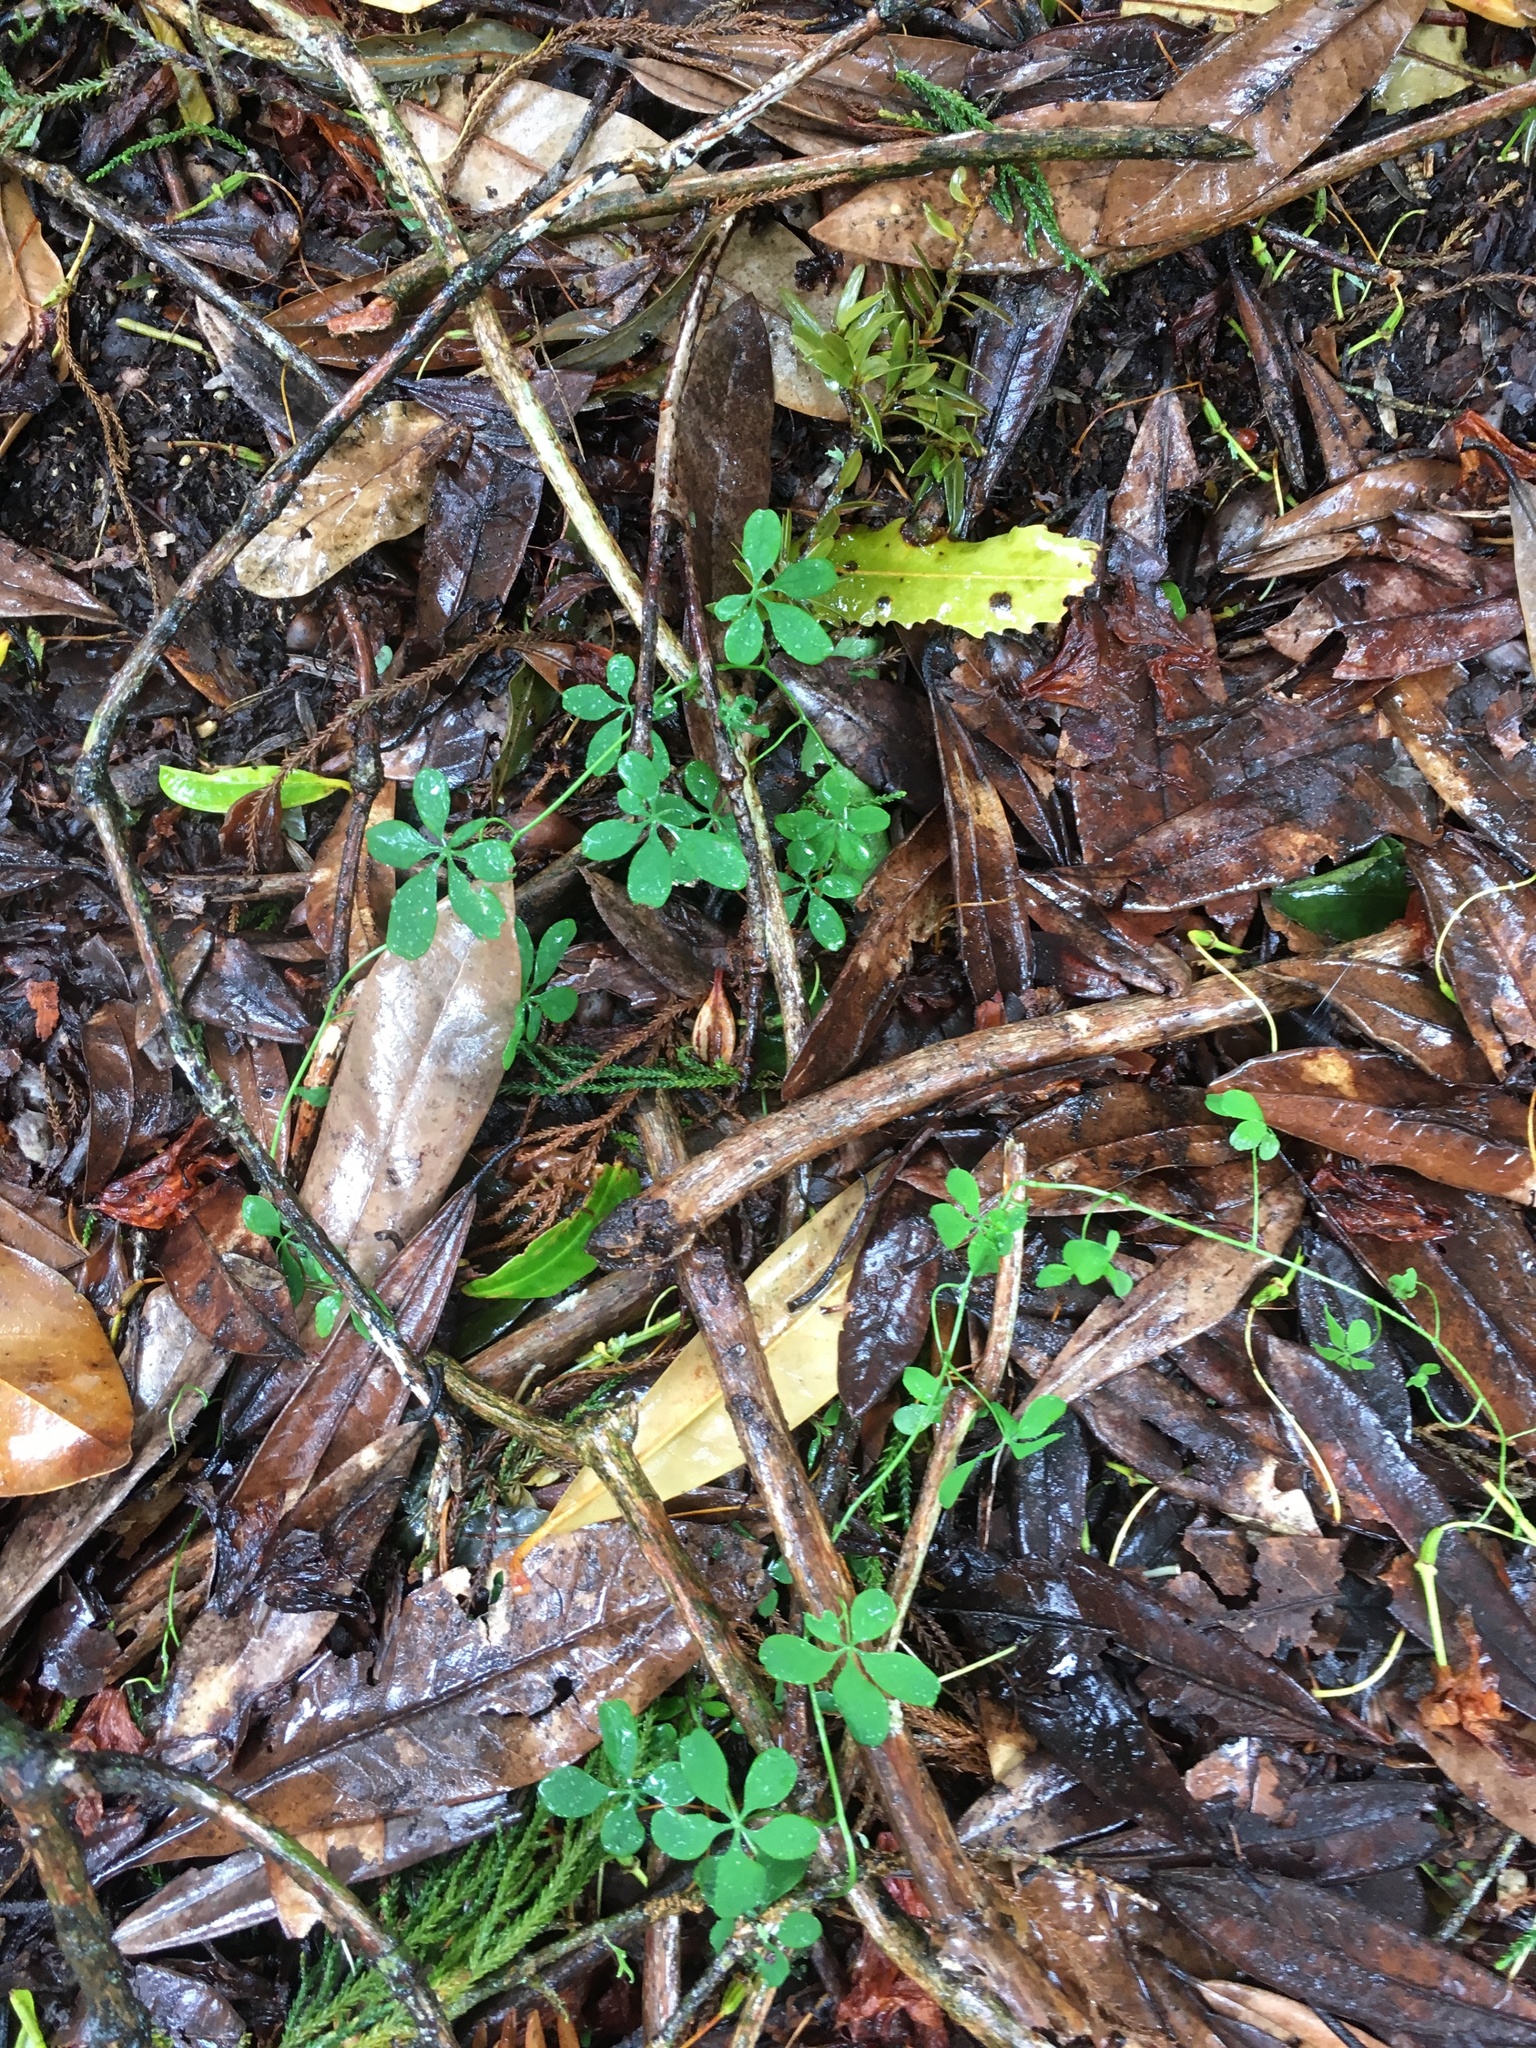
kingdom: Plantae
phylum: Tracheophyta
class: Magnoliopsida
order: Brassicales
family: Tropaeolaceae
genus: Tropaeolum
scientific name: Tropaeolum speciosum
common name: Flame nasturtium
